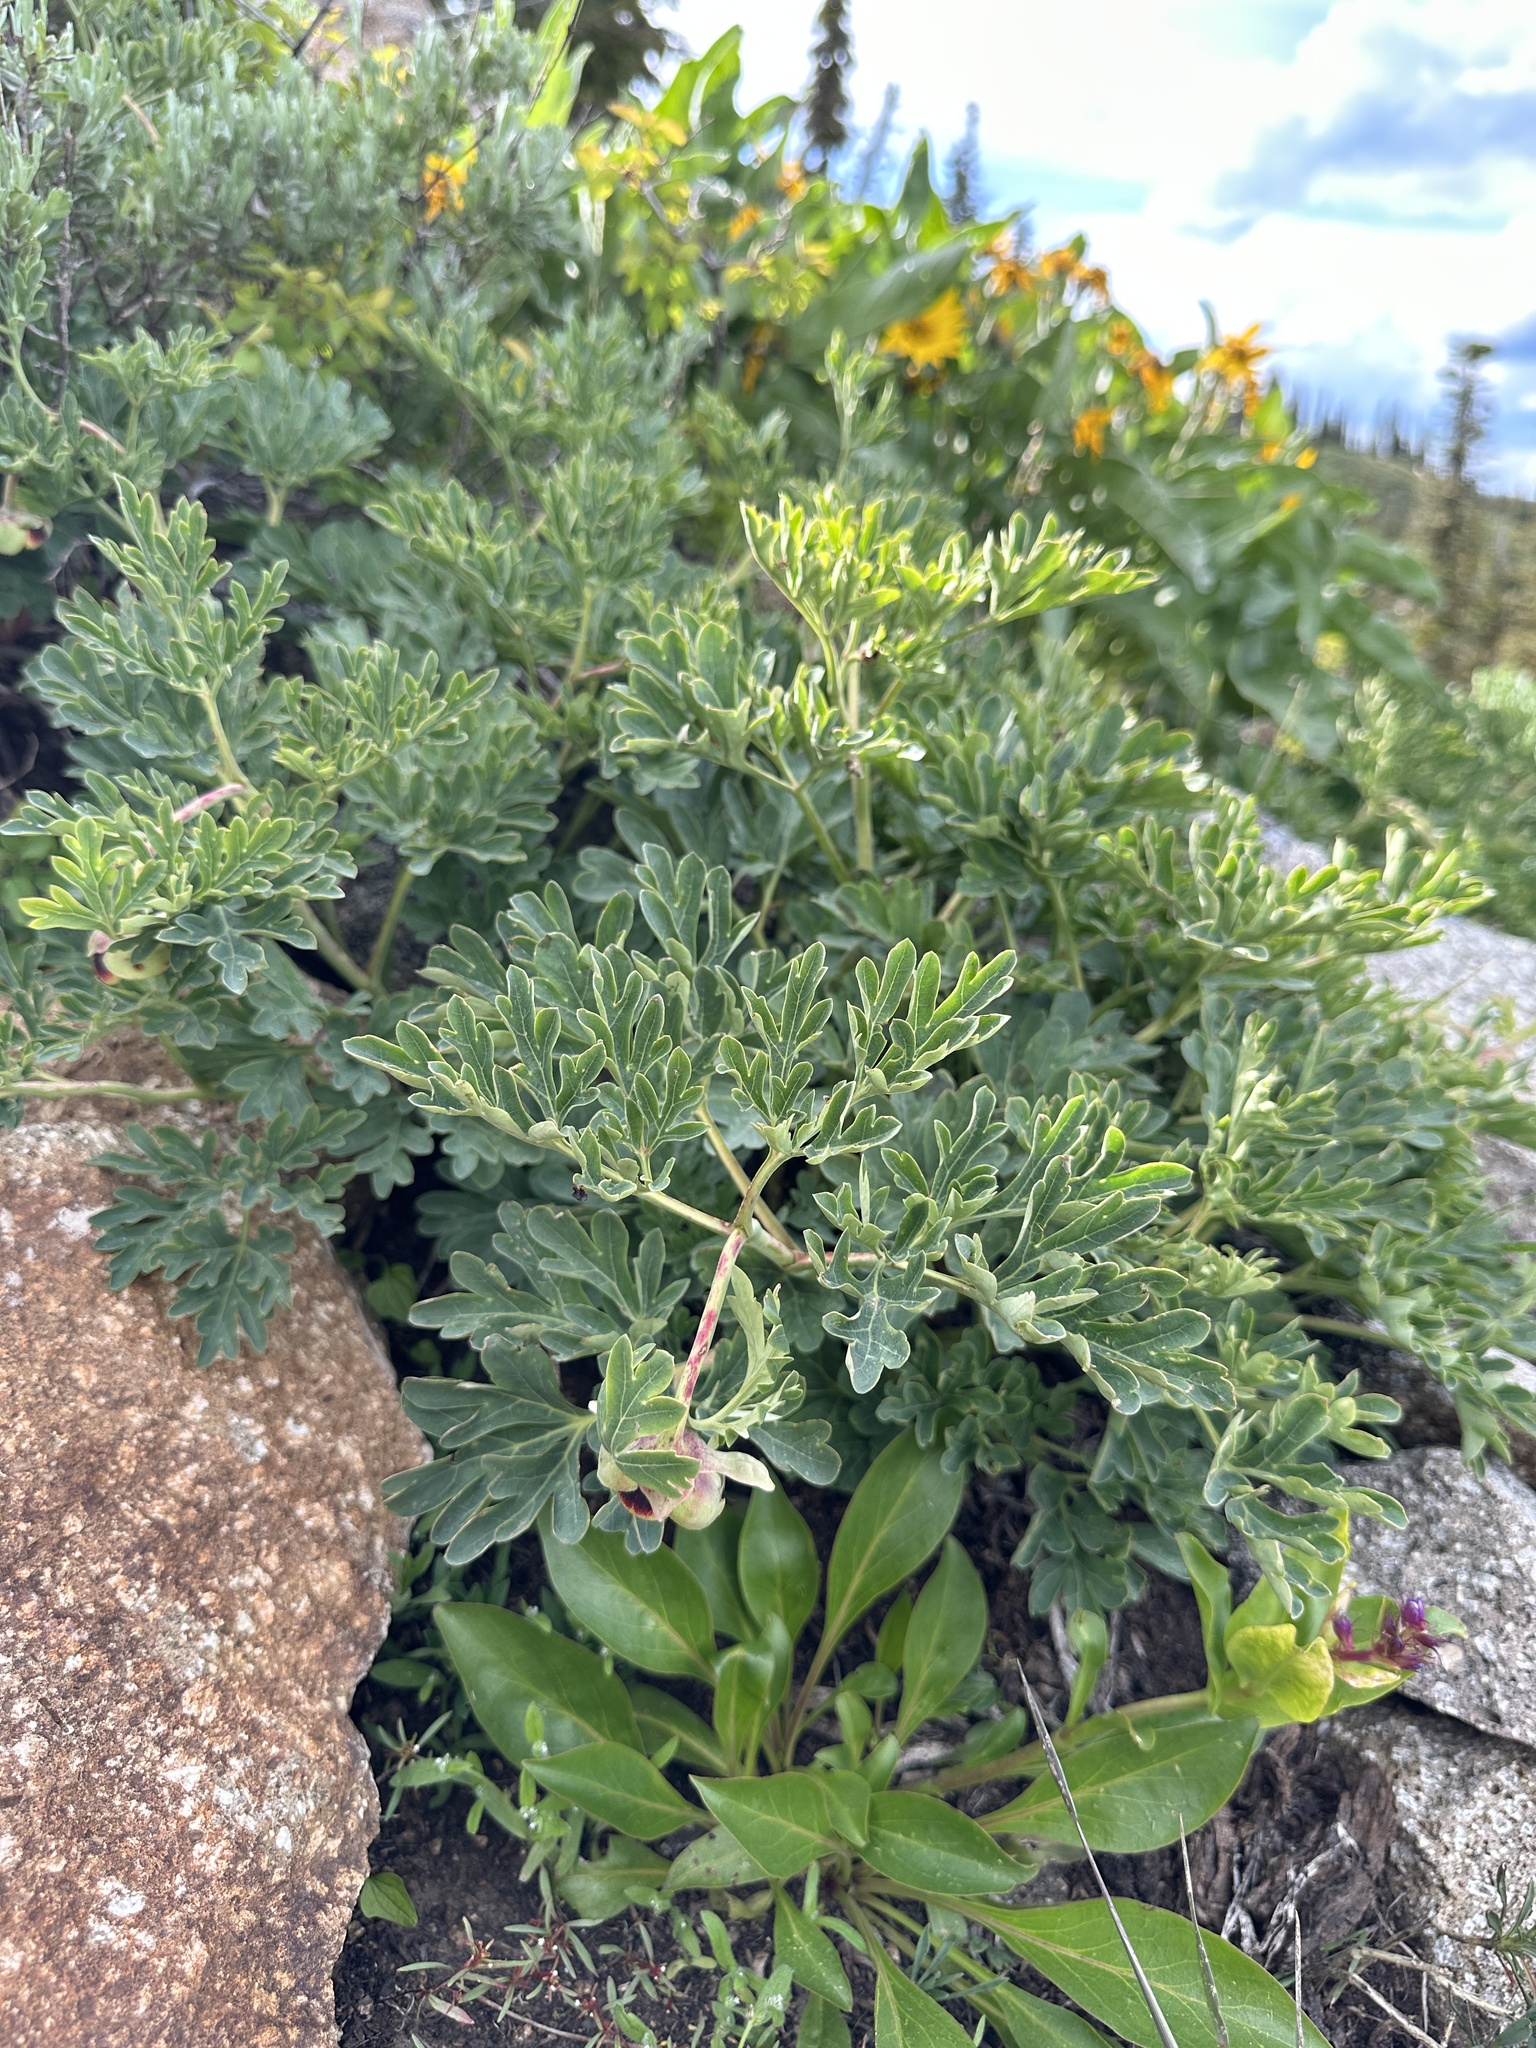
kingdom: Plantae
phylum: Tracheophyta
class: Magnoliopsida
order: Saxifragales
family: Paeoniaceae
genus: Paeonia
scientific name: Paeonia brownii
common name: Brown's peony
